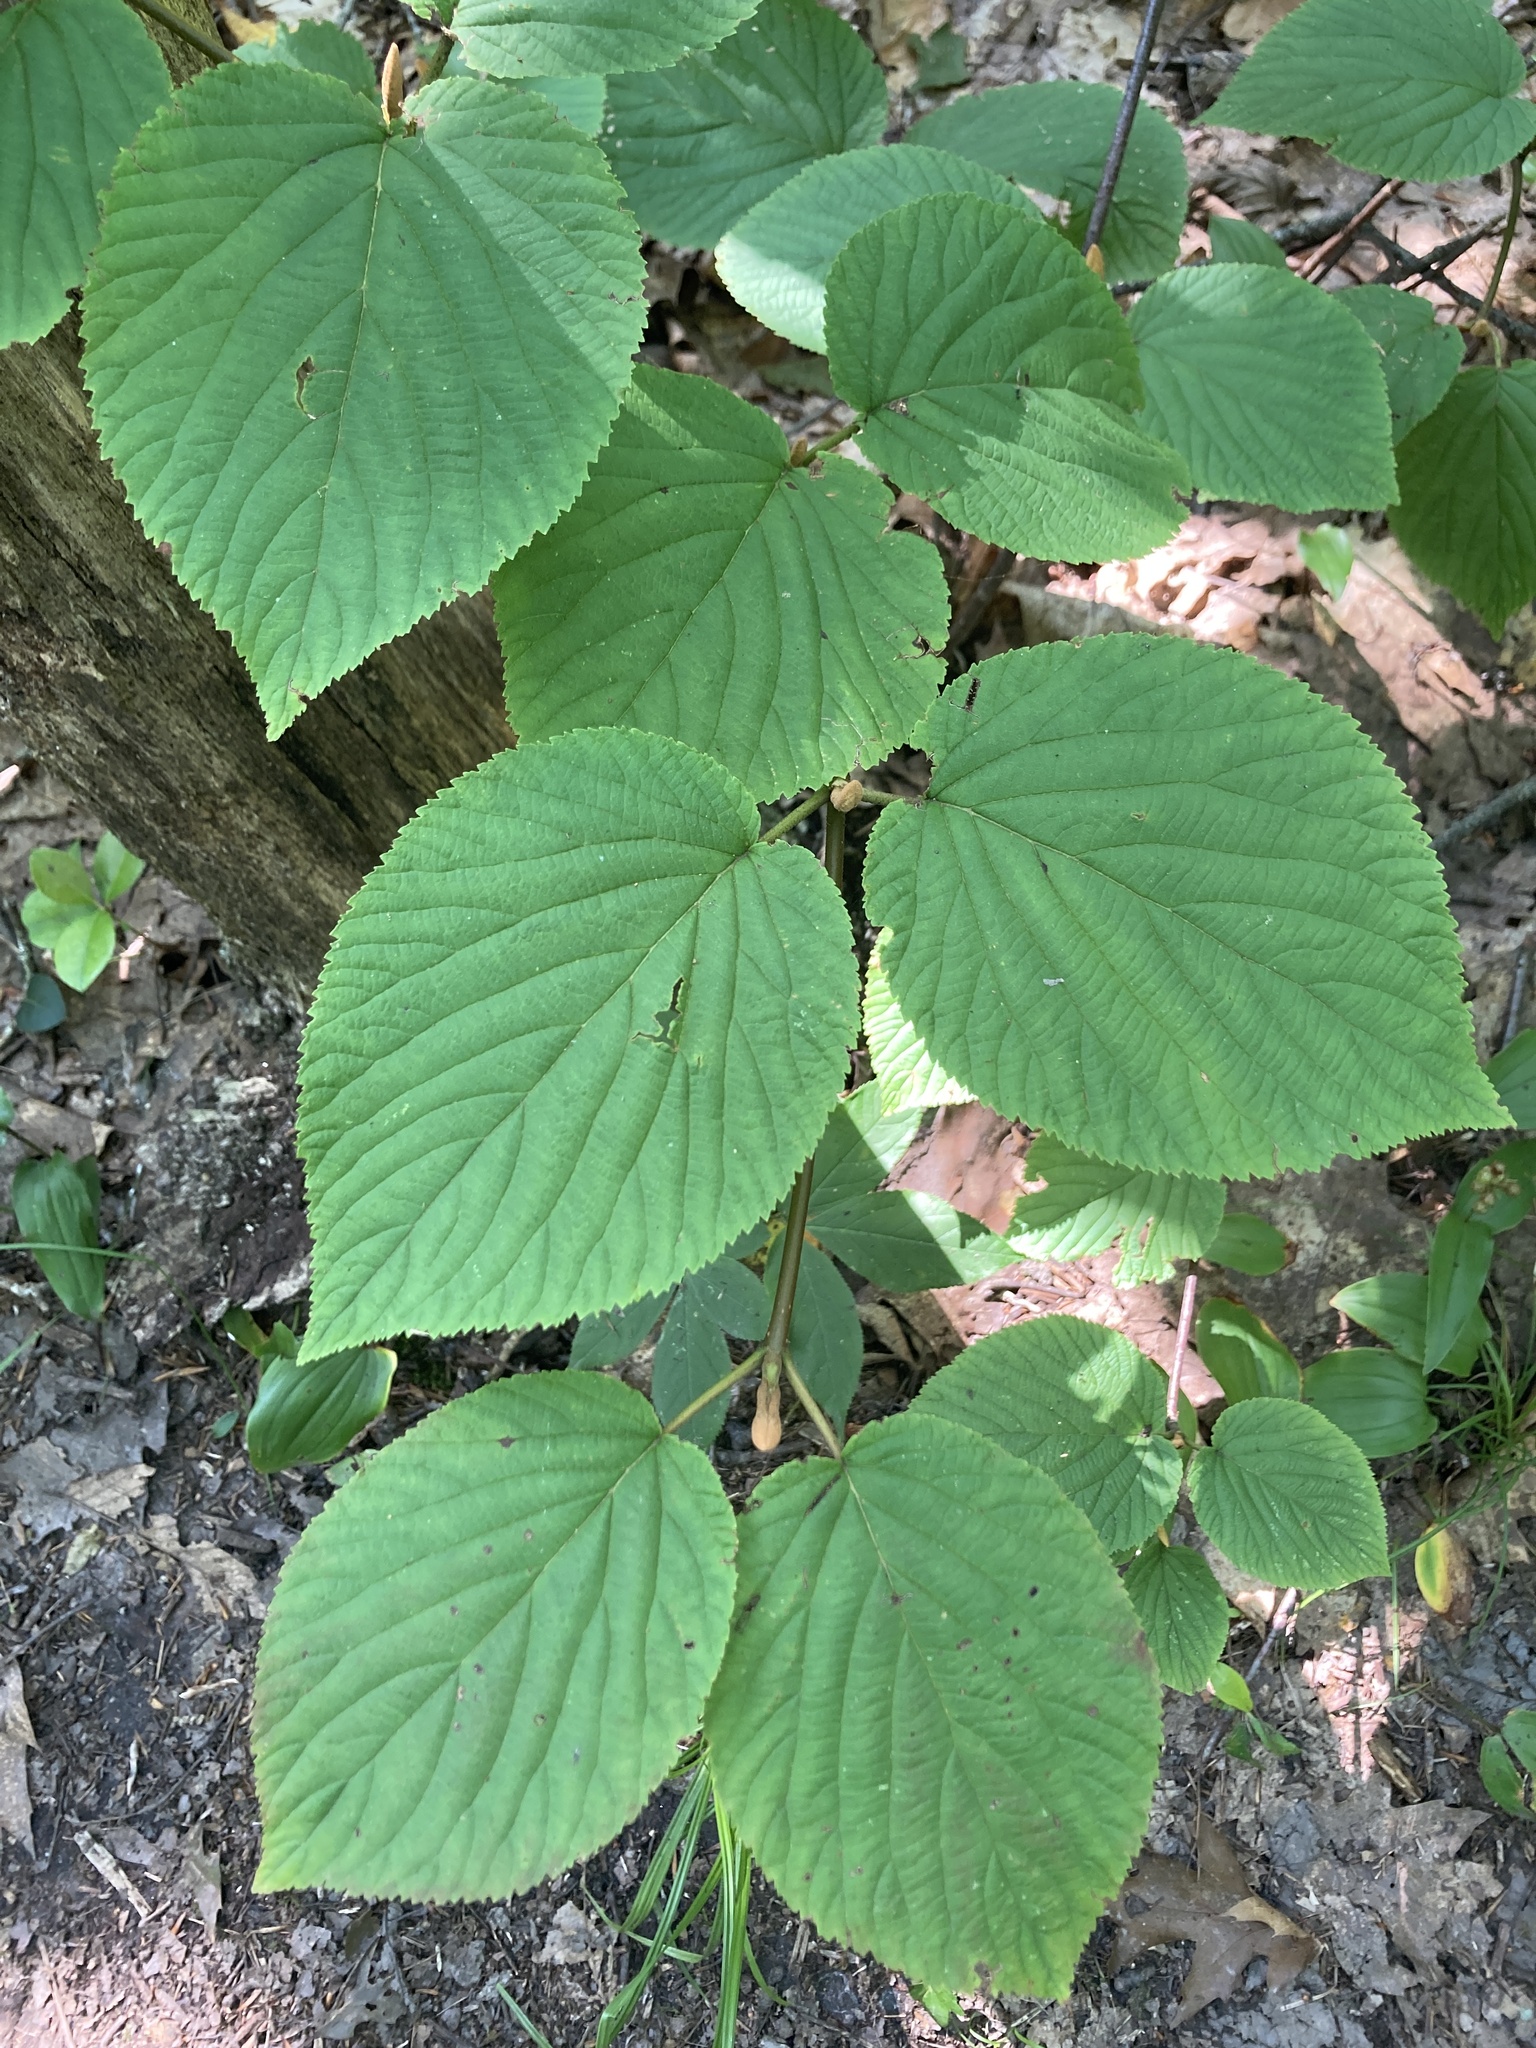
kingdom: Plantae
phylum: Tracheophyta
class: Magnoliopsida
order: Dipsacales
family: Viburnaceae
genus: Viburnum
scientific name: Viburnum lantanoides
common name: Hobblebush
